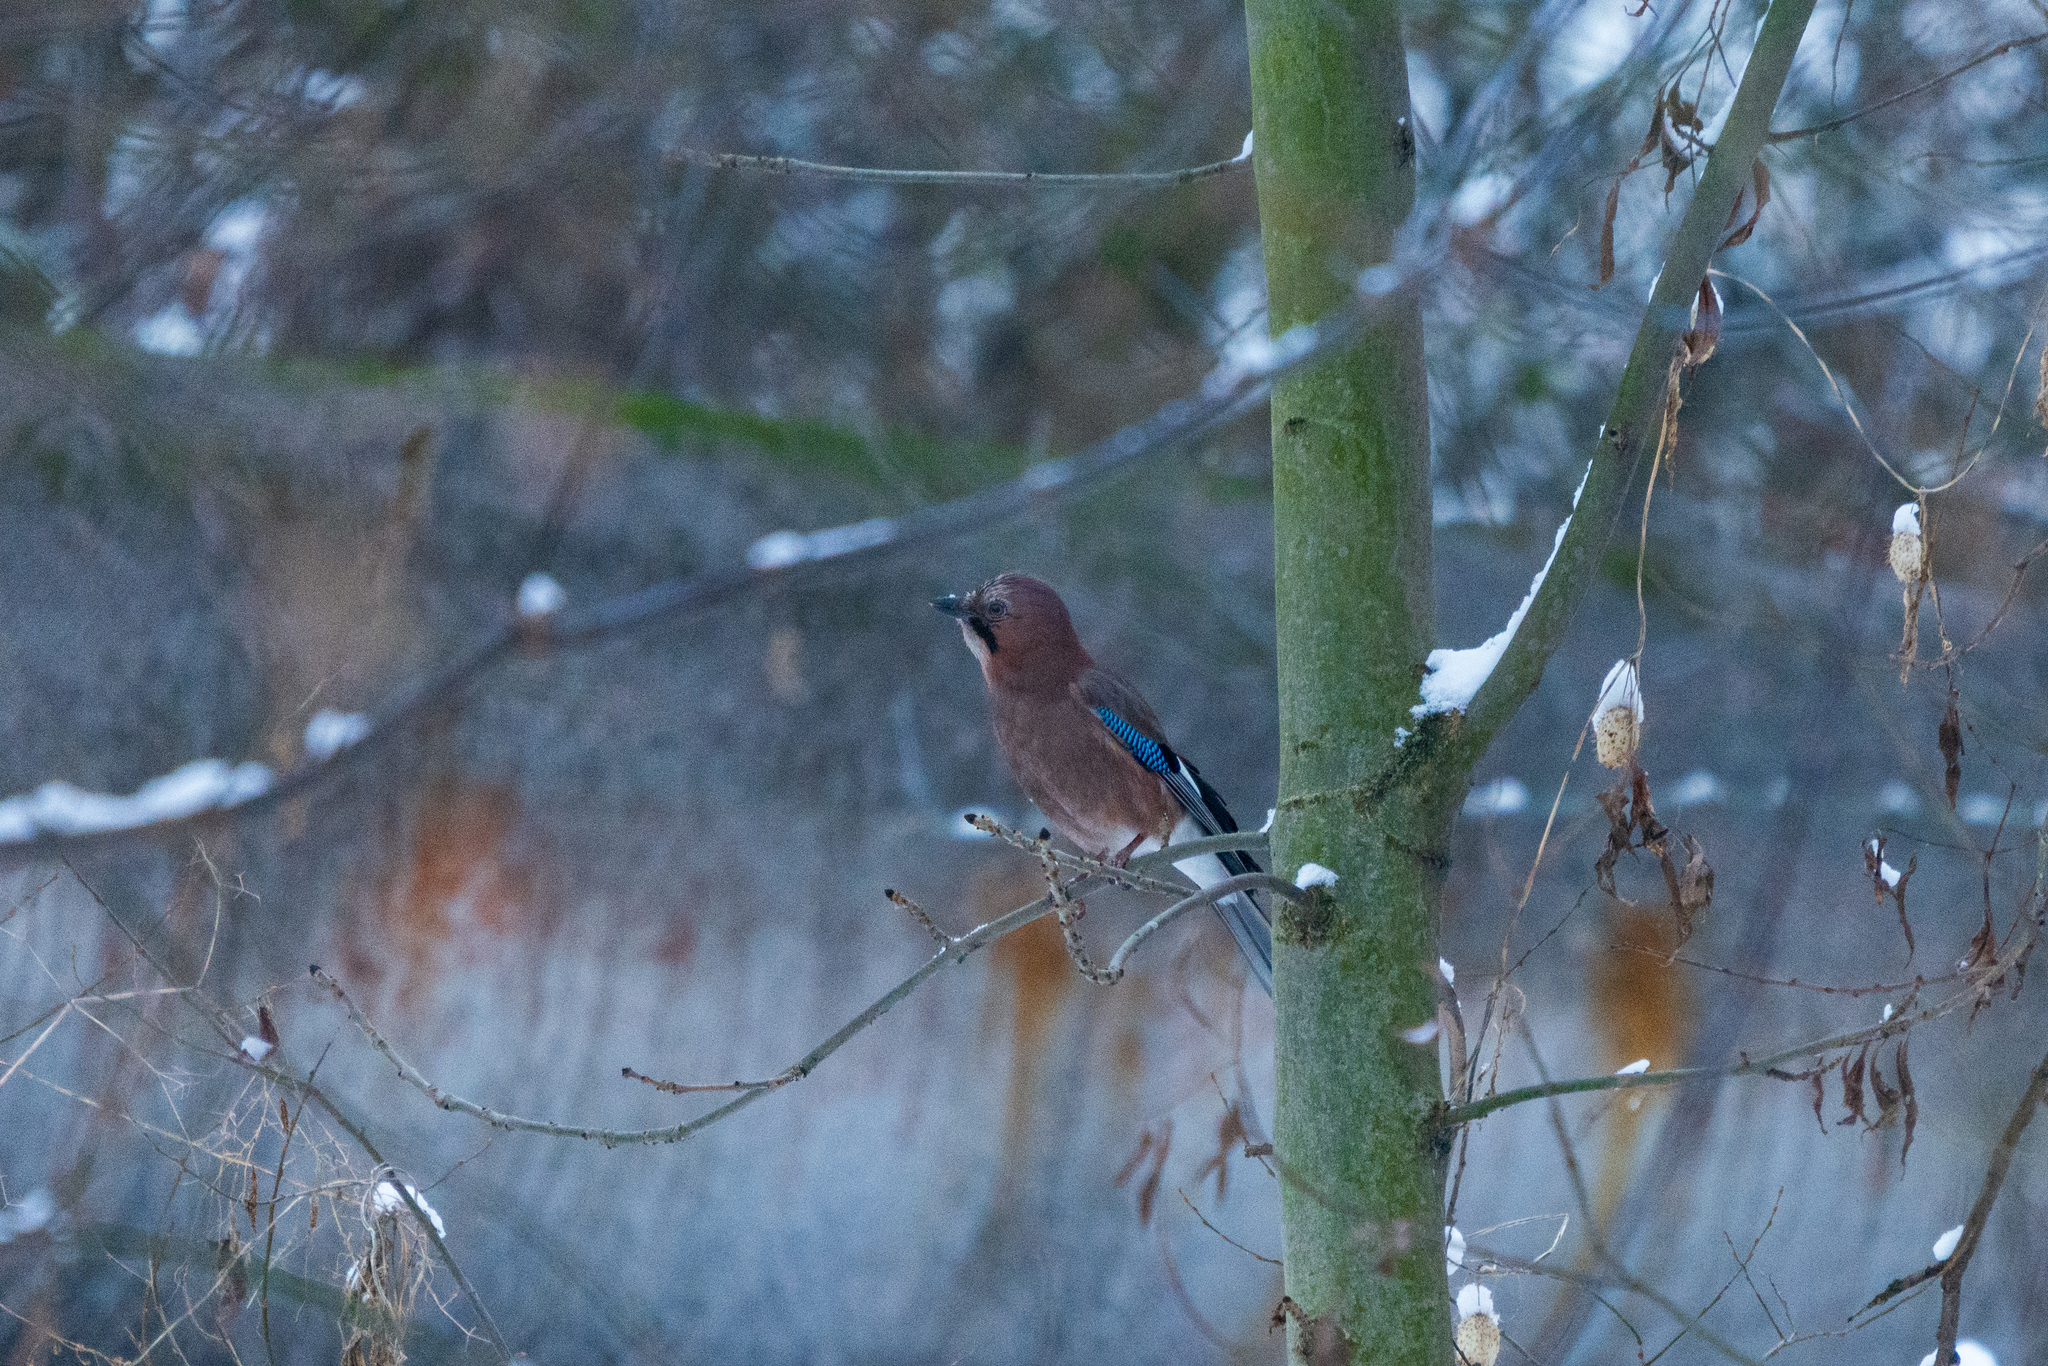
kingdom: Animalia
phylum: Chordata
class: Aves
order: Passeriformes
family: Corvidae
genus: Garrulus
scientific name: Garrulus glandarius
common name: Eurasian jay
